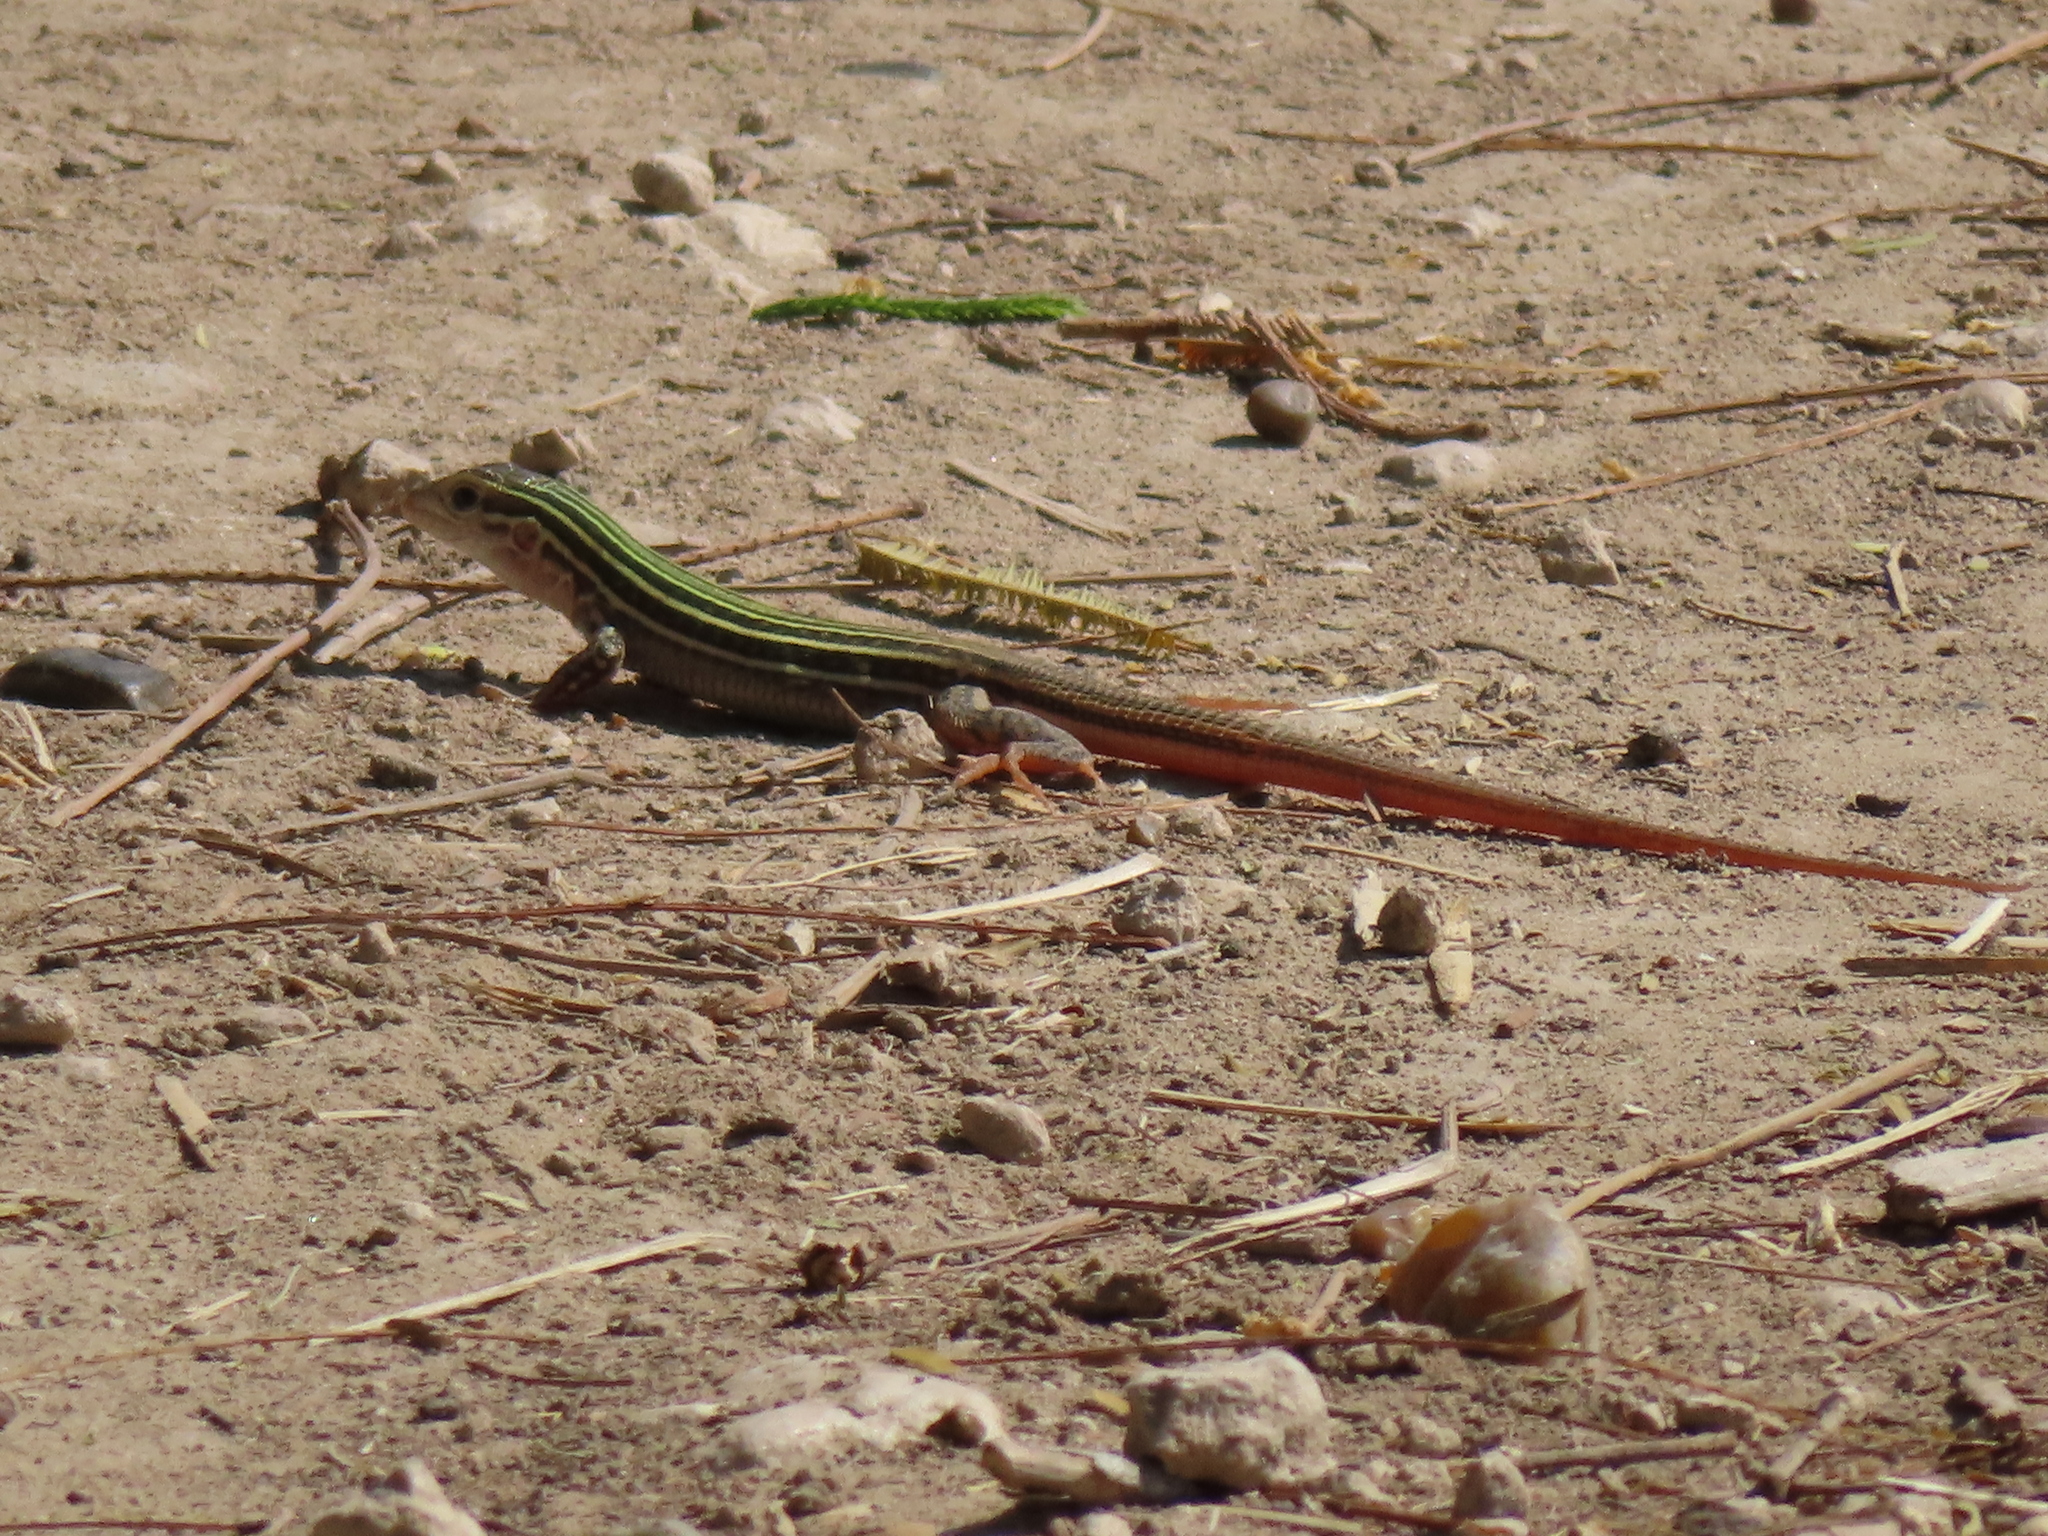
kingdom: Animalia
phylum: Chordata
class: Squamata
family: Teiidae
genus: Aspidoscelis
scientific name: Aspidoscelis gularis
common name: Eastern spotted whiptail
